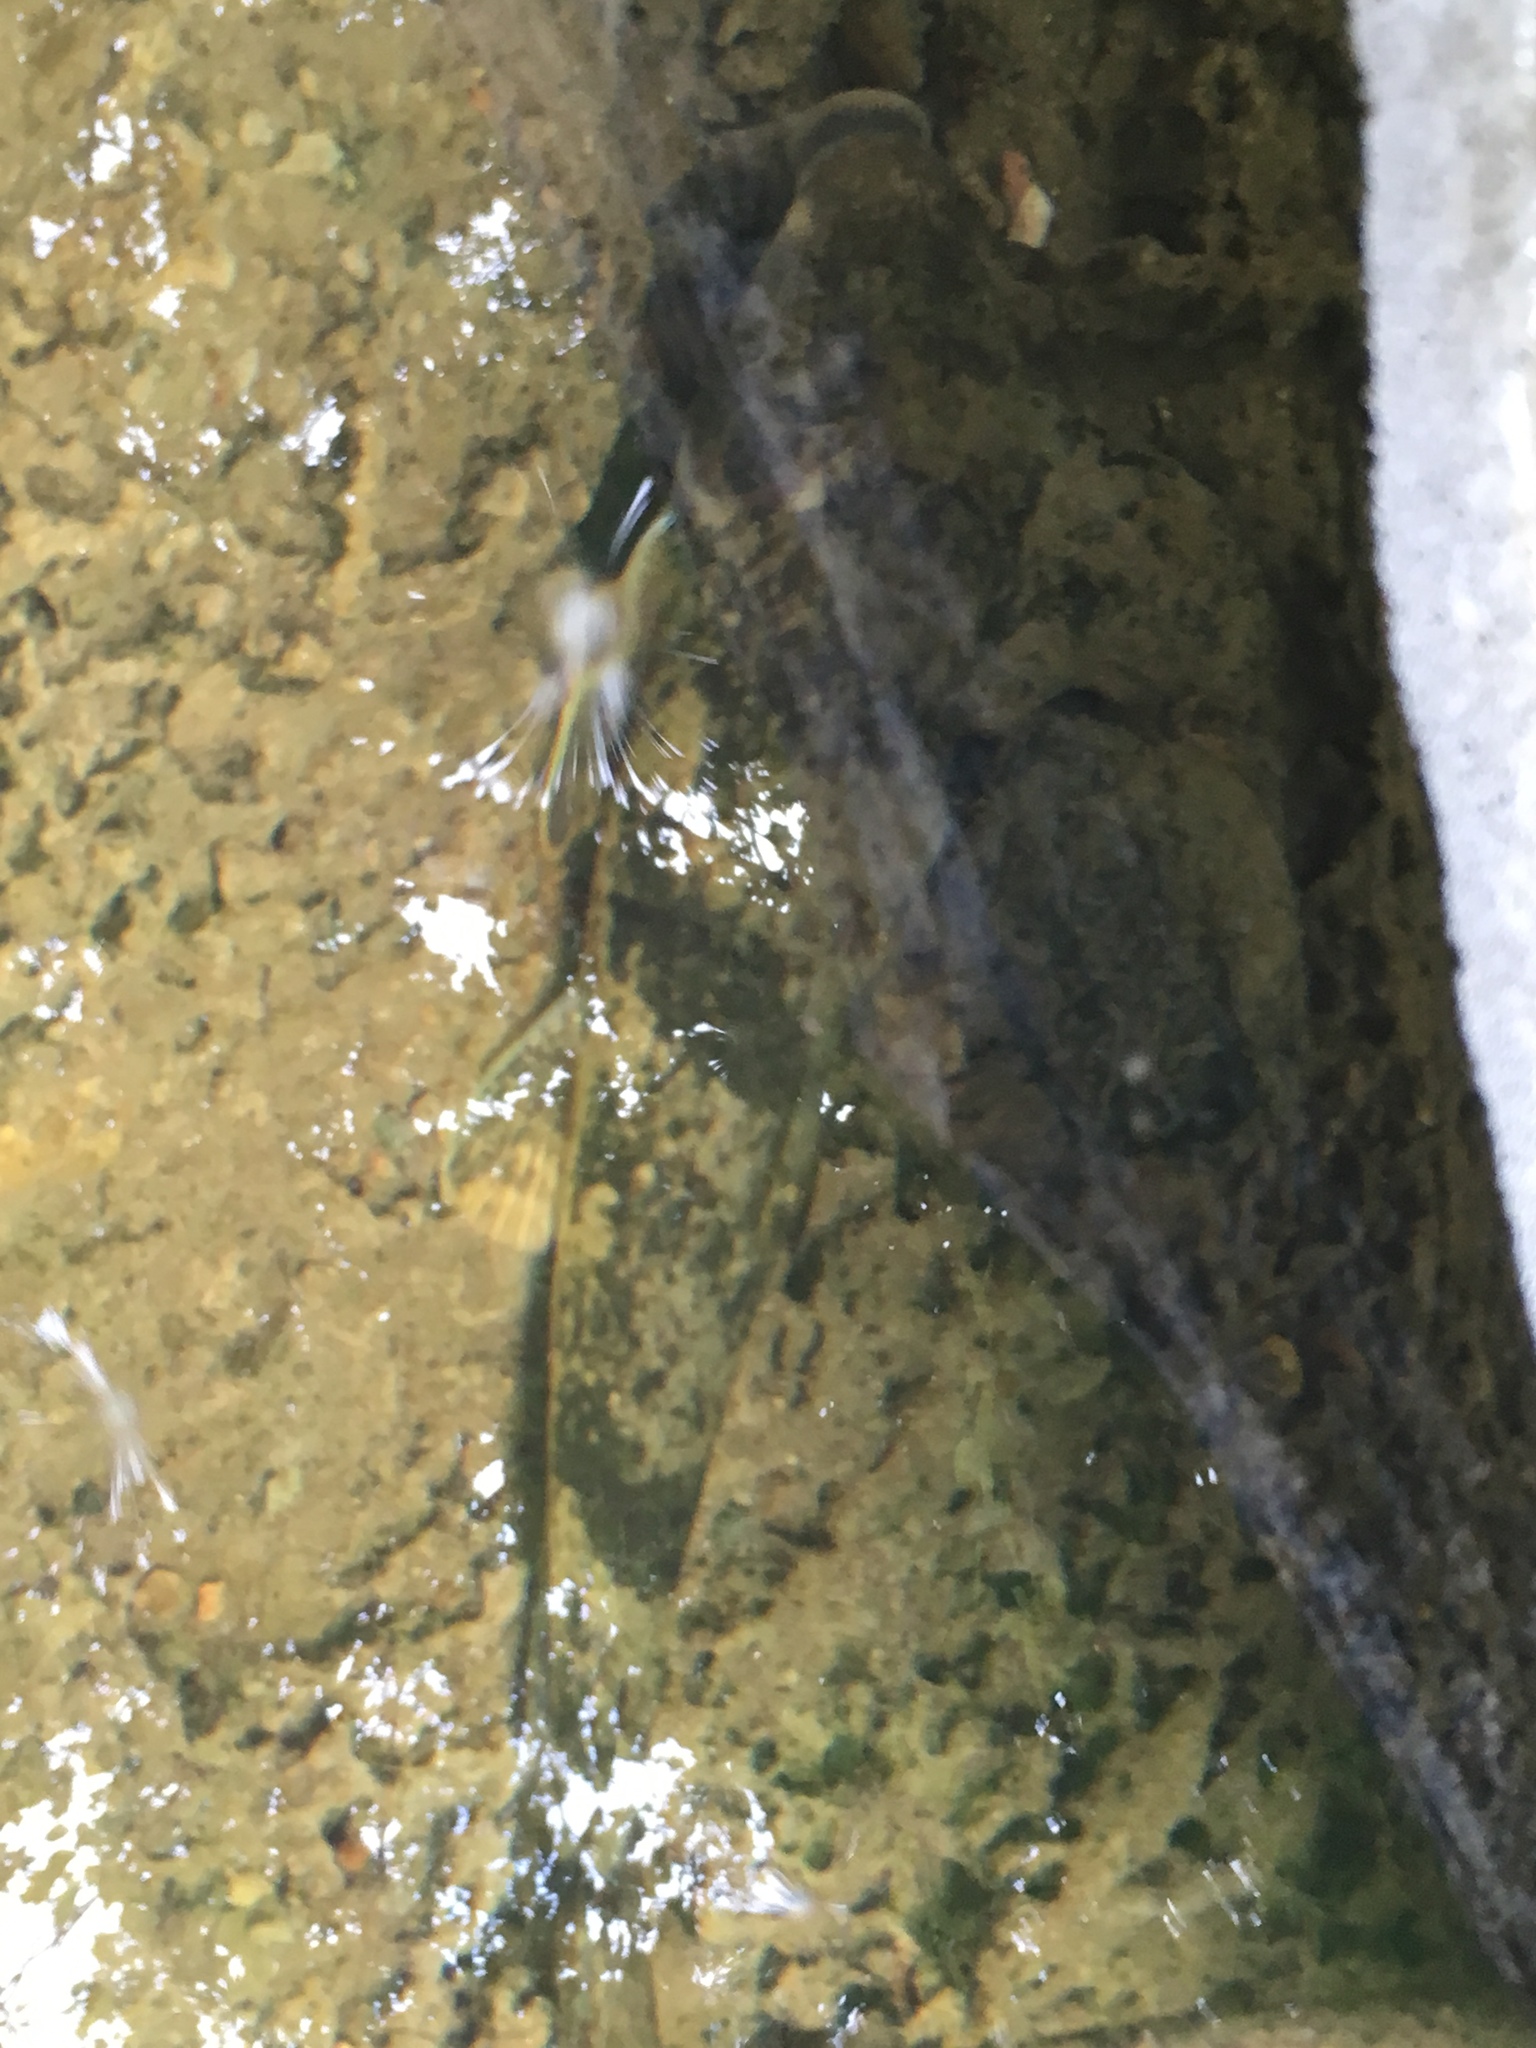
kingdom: Animalia
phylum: Chordata
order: Cypriniformes
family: Catostomidae
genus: Hypentelium
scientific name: Hypentelium nigricans
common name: Northern hog sucker
